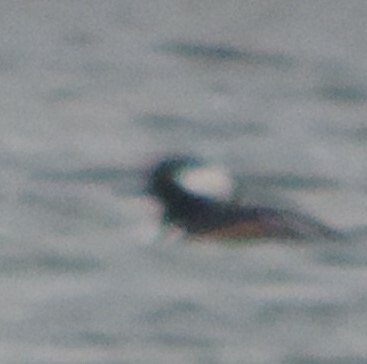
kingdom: Animalia
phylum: Chordata
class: Aves
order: Anseriformes
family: Anatidae
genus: Lophodytes
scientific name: Lophodytes cucullatus
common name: Hooded merganser
